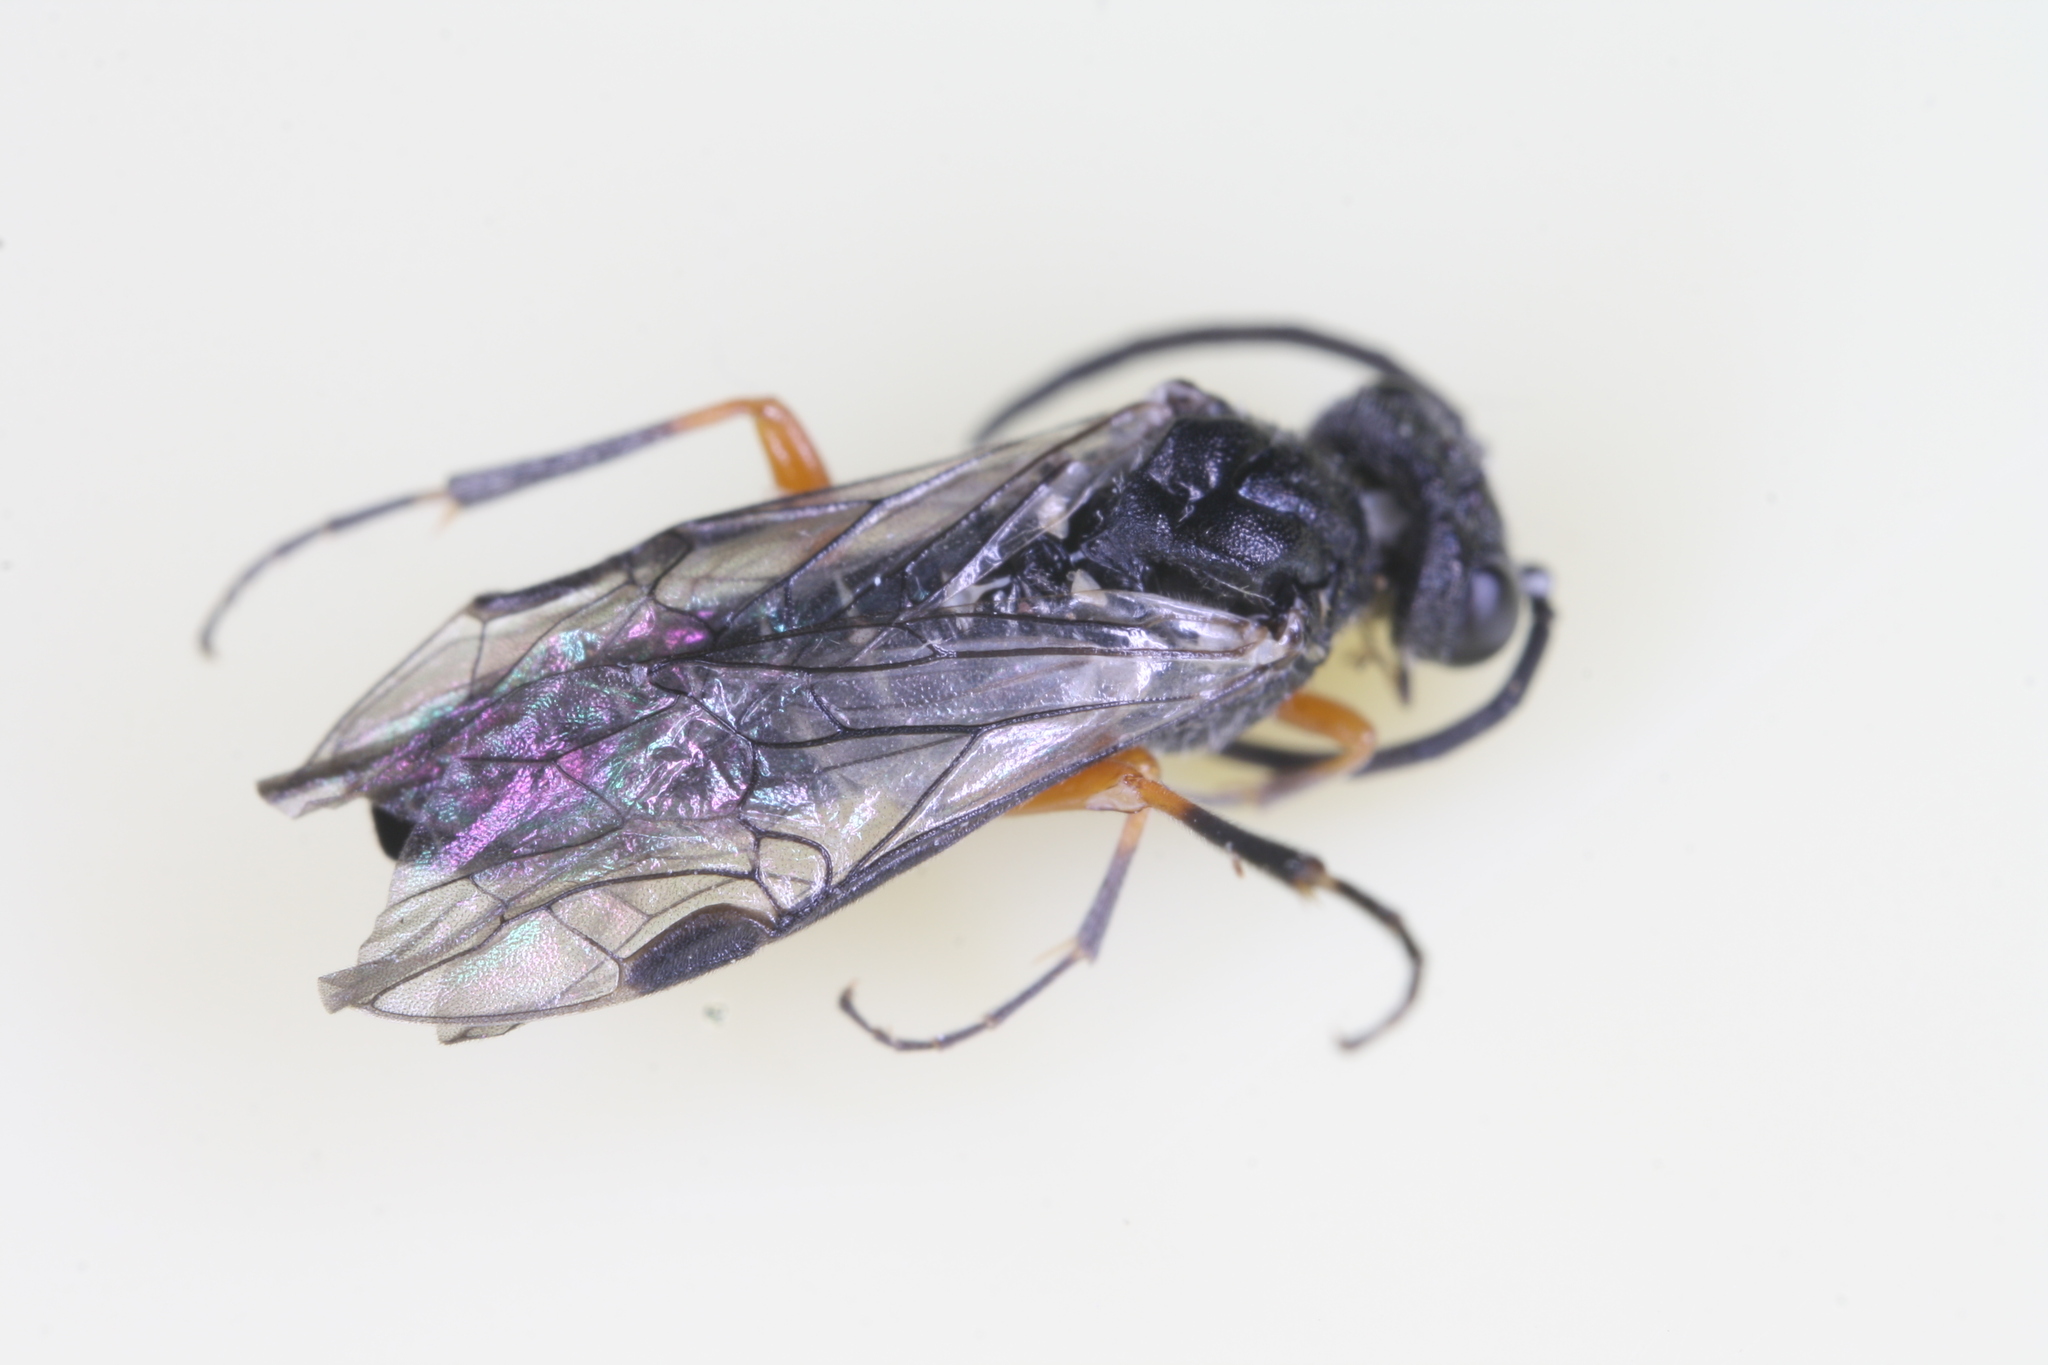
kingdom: Animalia
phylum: Arthropoda
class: Insecta
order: Hymenoptera
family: Tenthredinidae
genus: Dolerus
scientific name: Dolerus vestigialis
